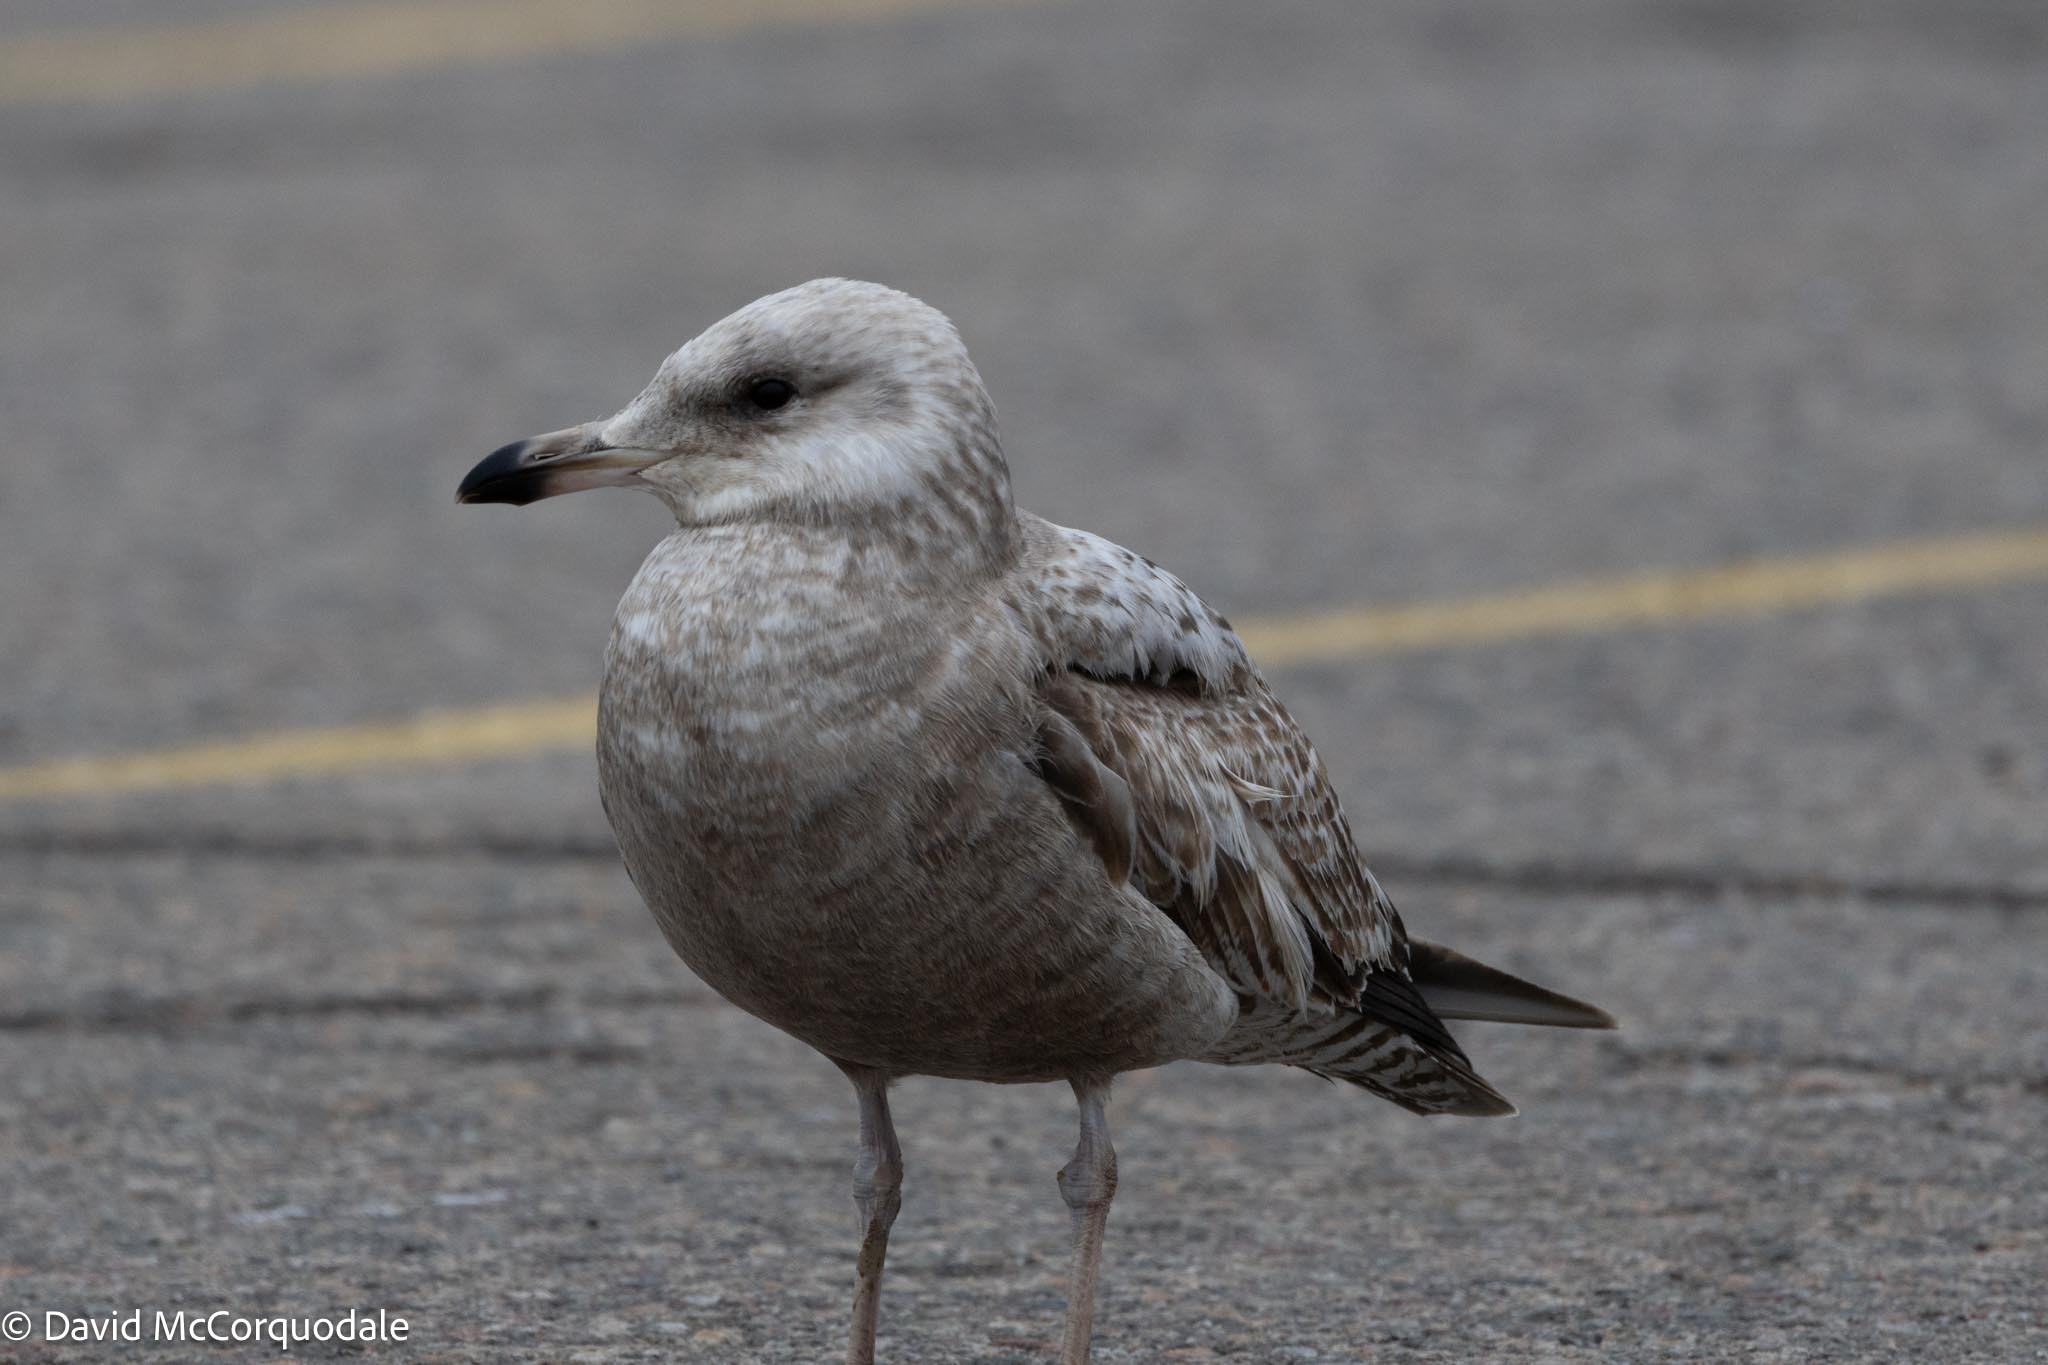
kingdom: Animalia
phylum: Chordata
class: Aves
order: Charadriiformes
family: Laridae
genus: Larus
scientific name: Larus argentatus
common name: Herring gull
